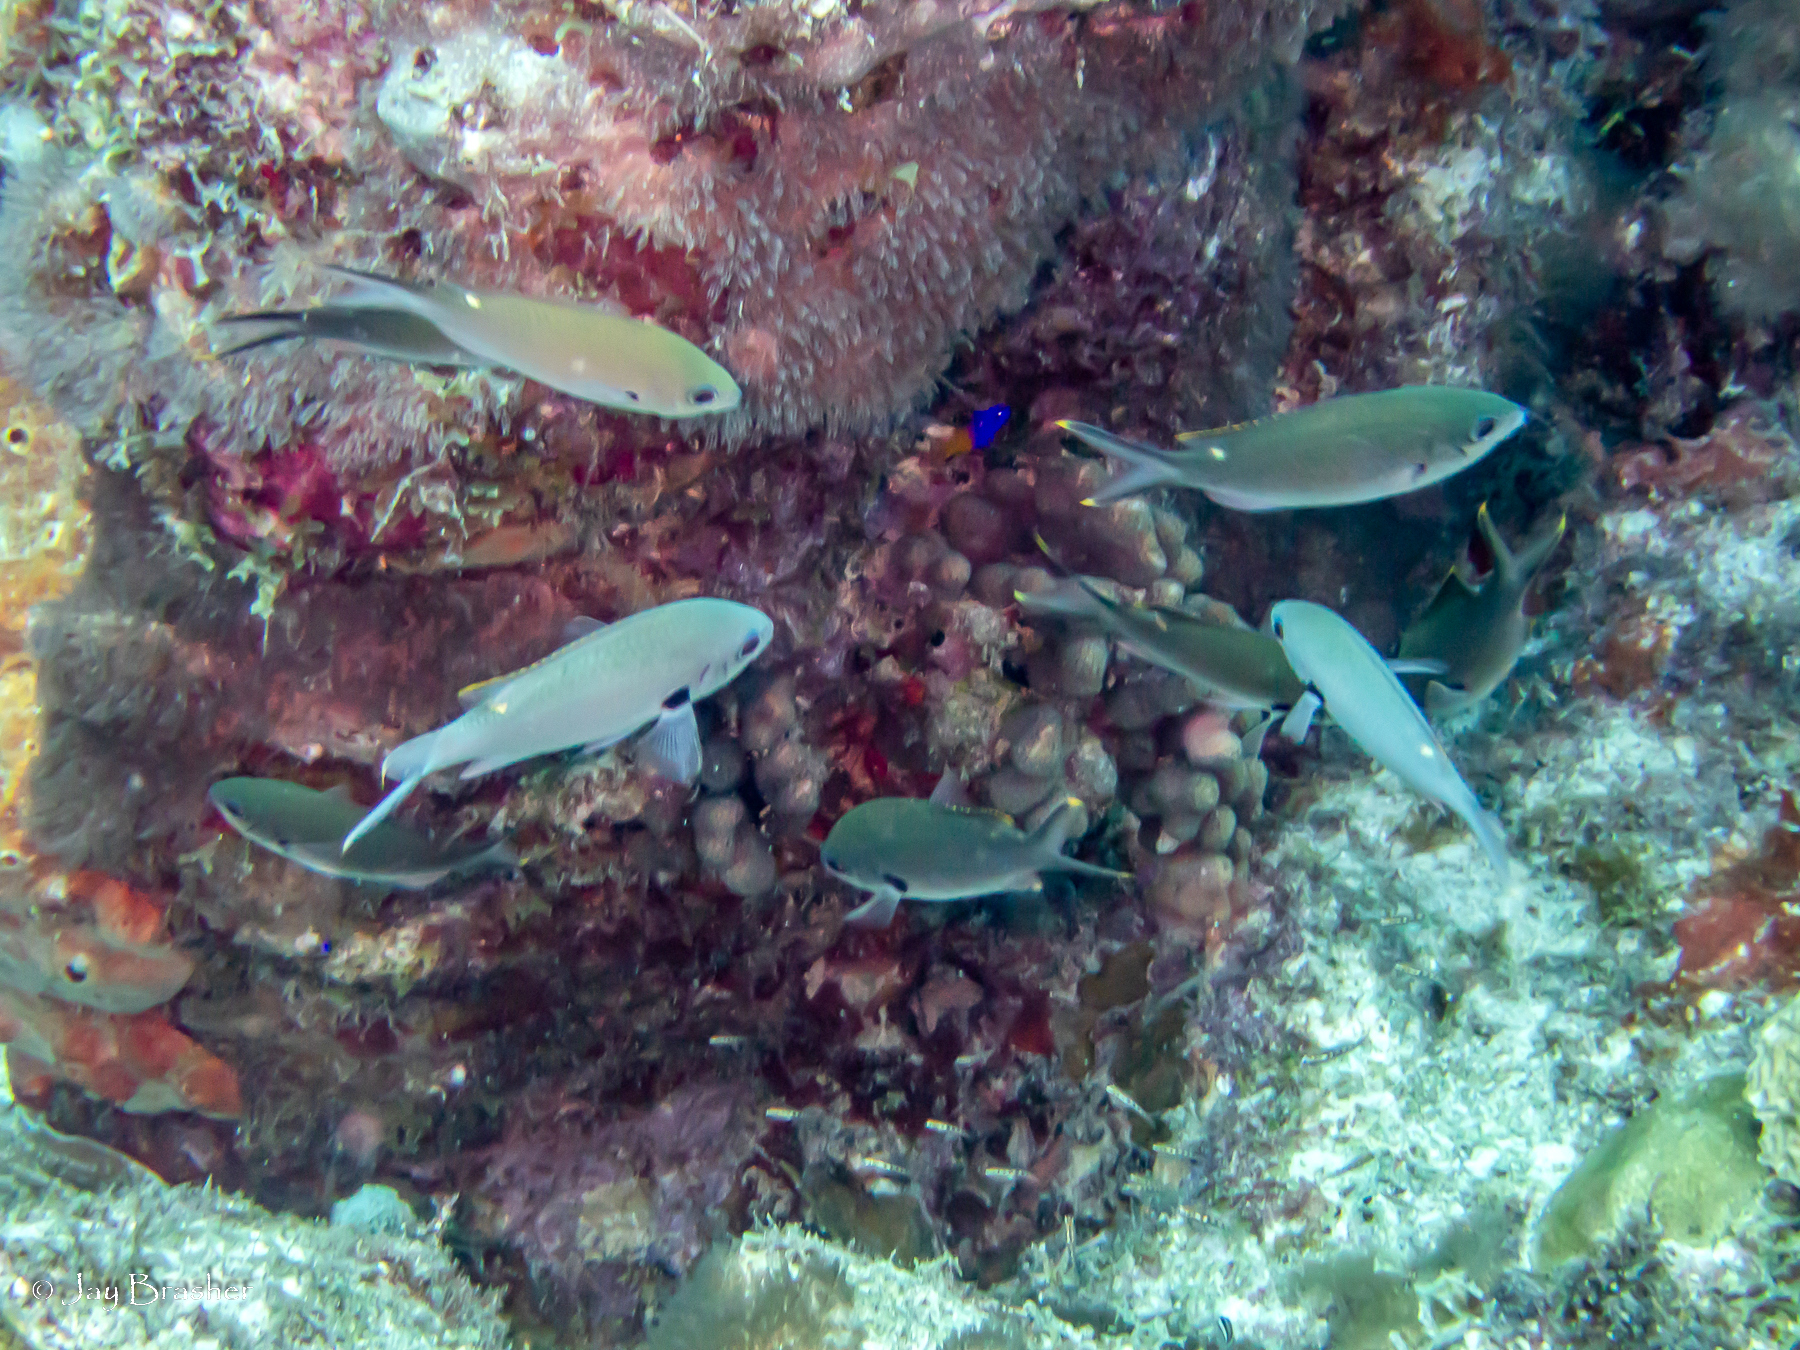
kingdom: Animalia
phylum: Chordata
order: Perciformes
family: Pomacentridae
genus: Chromis
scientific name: Chromis multilineata
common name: Brown chromis
